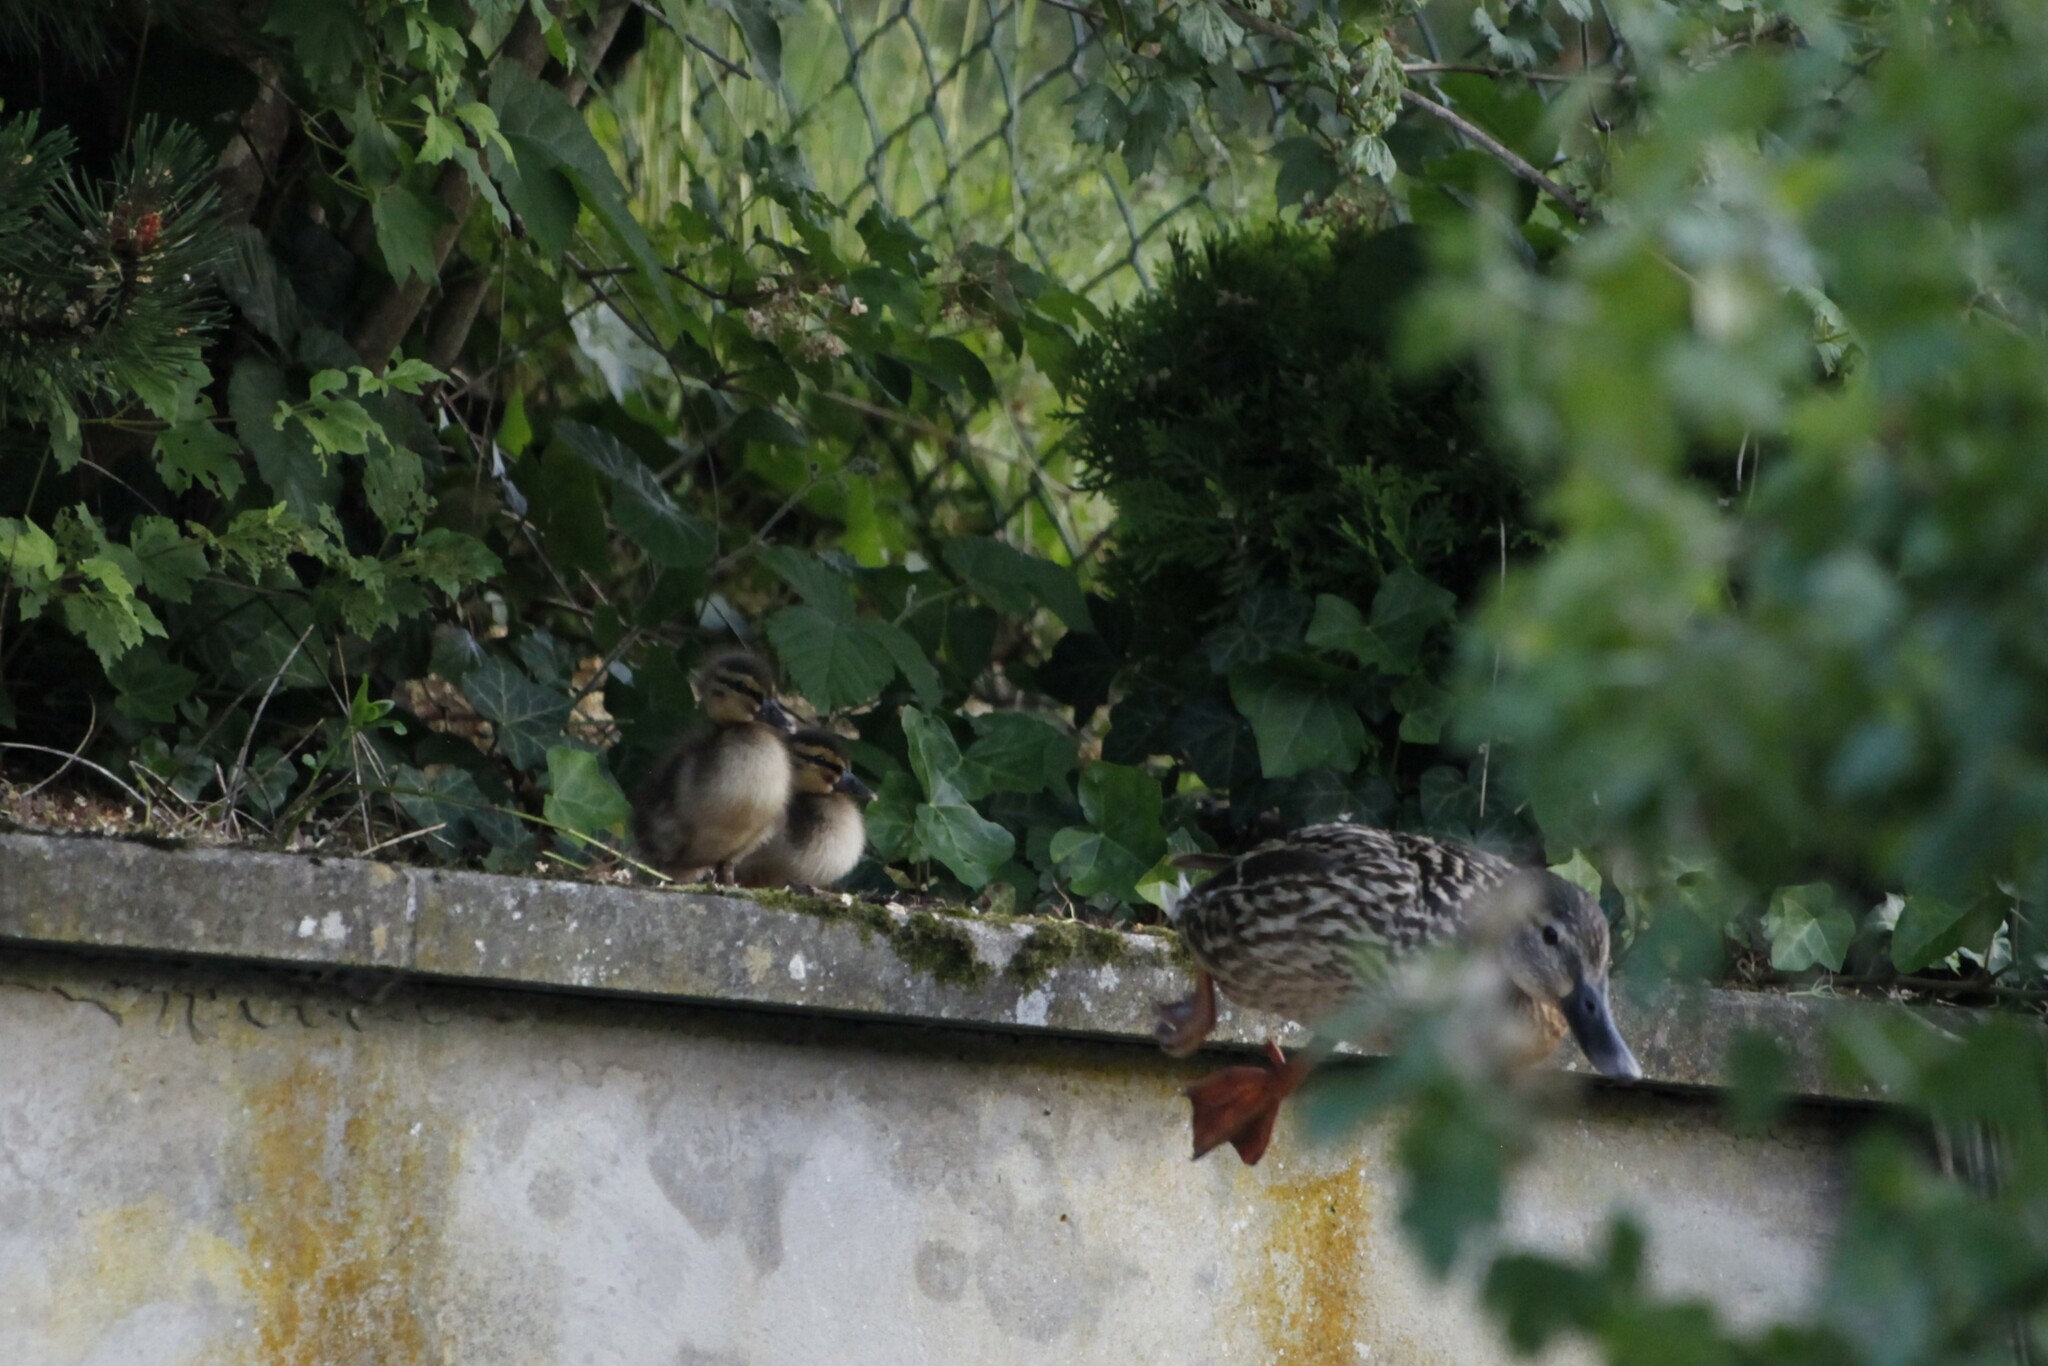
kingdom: Animalia
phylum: Chordata
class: Aves
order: Anseriformes
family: Anatidae
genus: Anas
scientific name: Anas platyrhynchos
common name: Mallard
